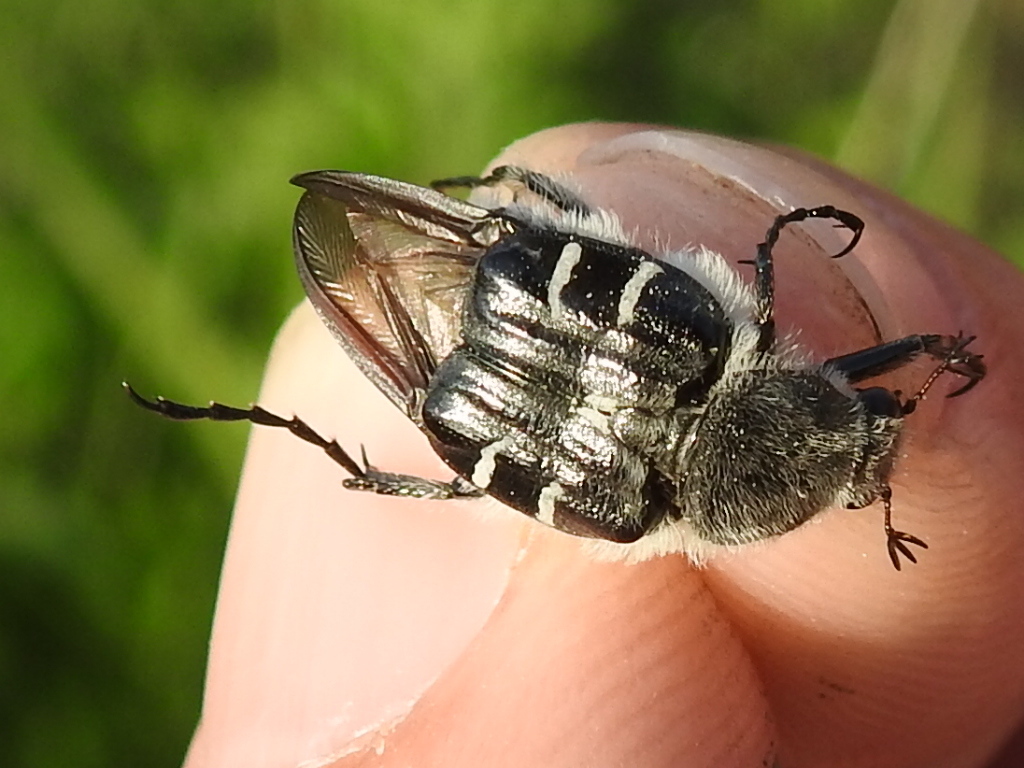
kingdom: Animalia
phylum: Arthropoda
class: Insecta
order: Coleoptera
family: Scarabaeidae
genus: Trichiotinus
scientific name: Trichiotinus texanus
